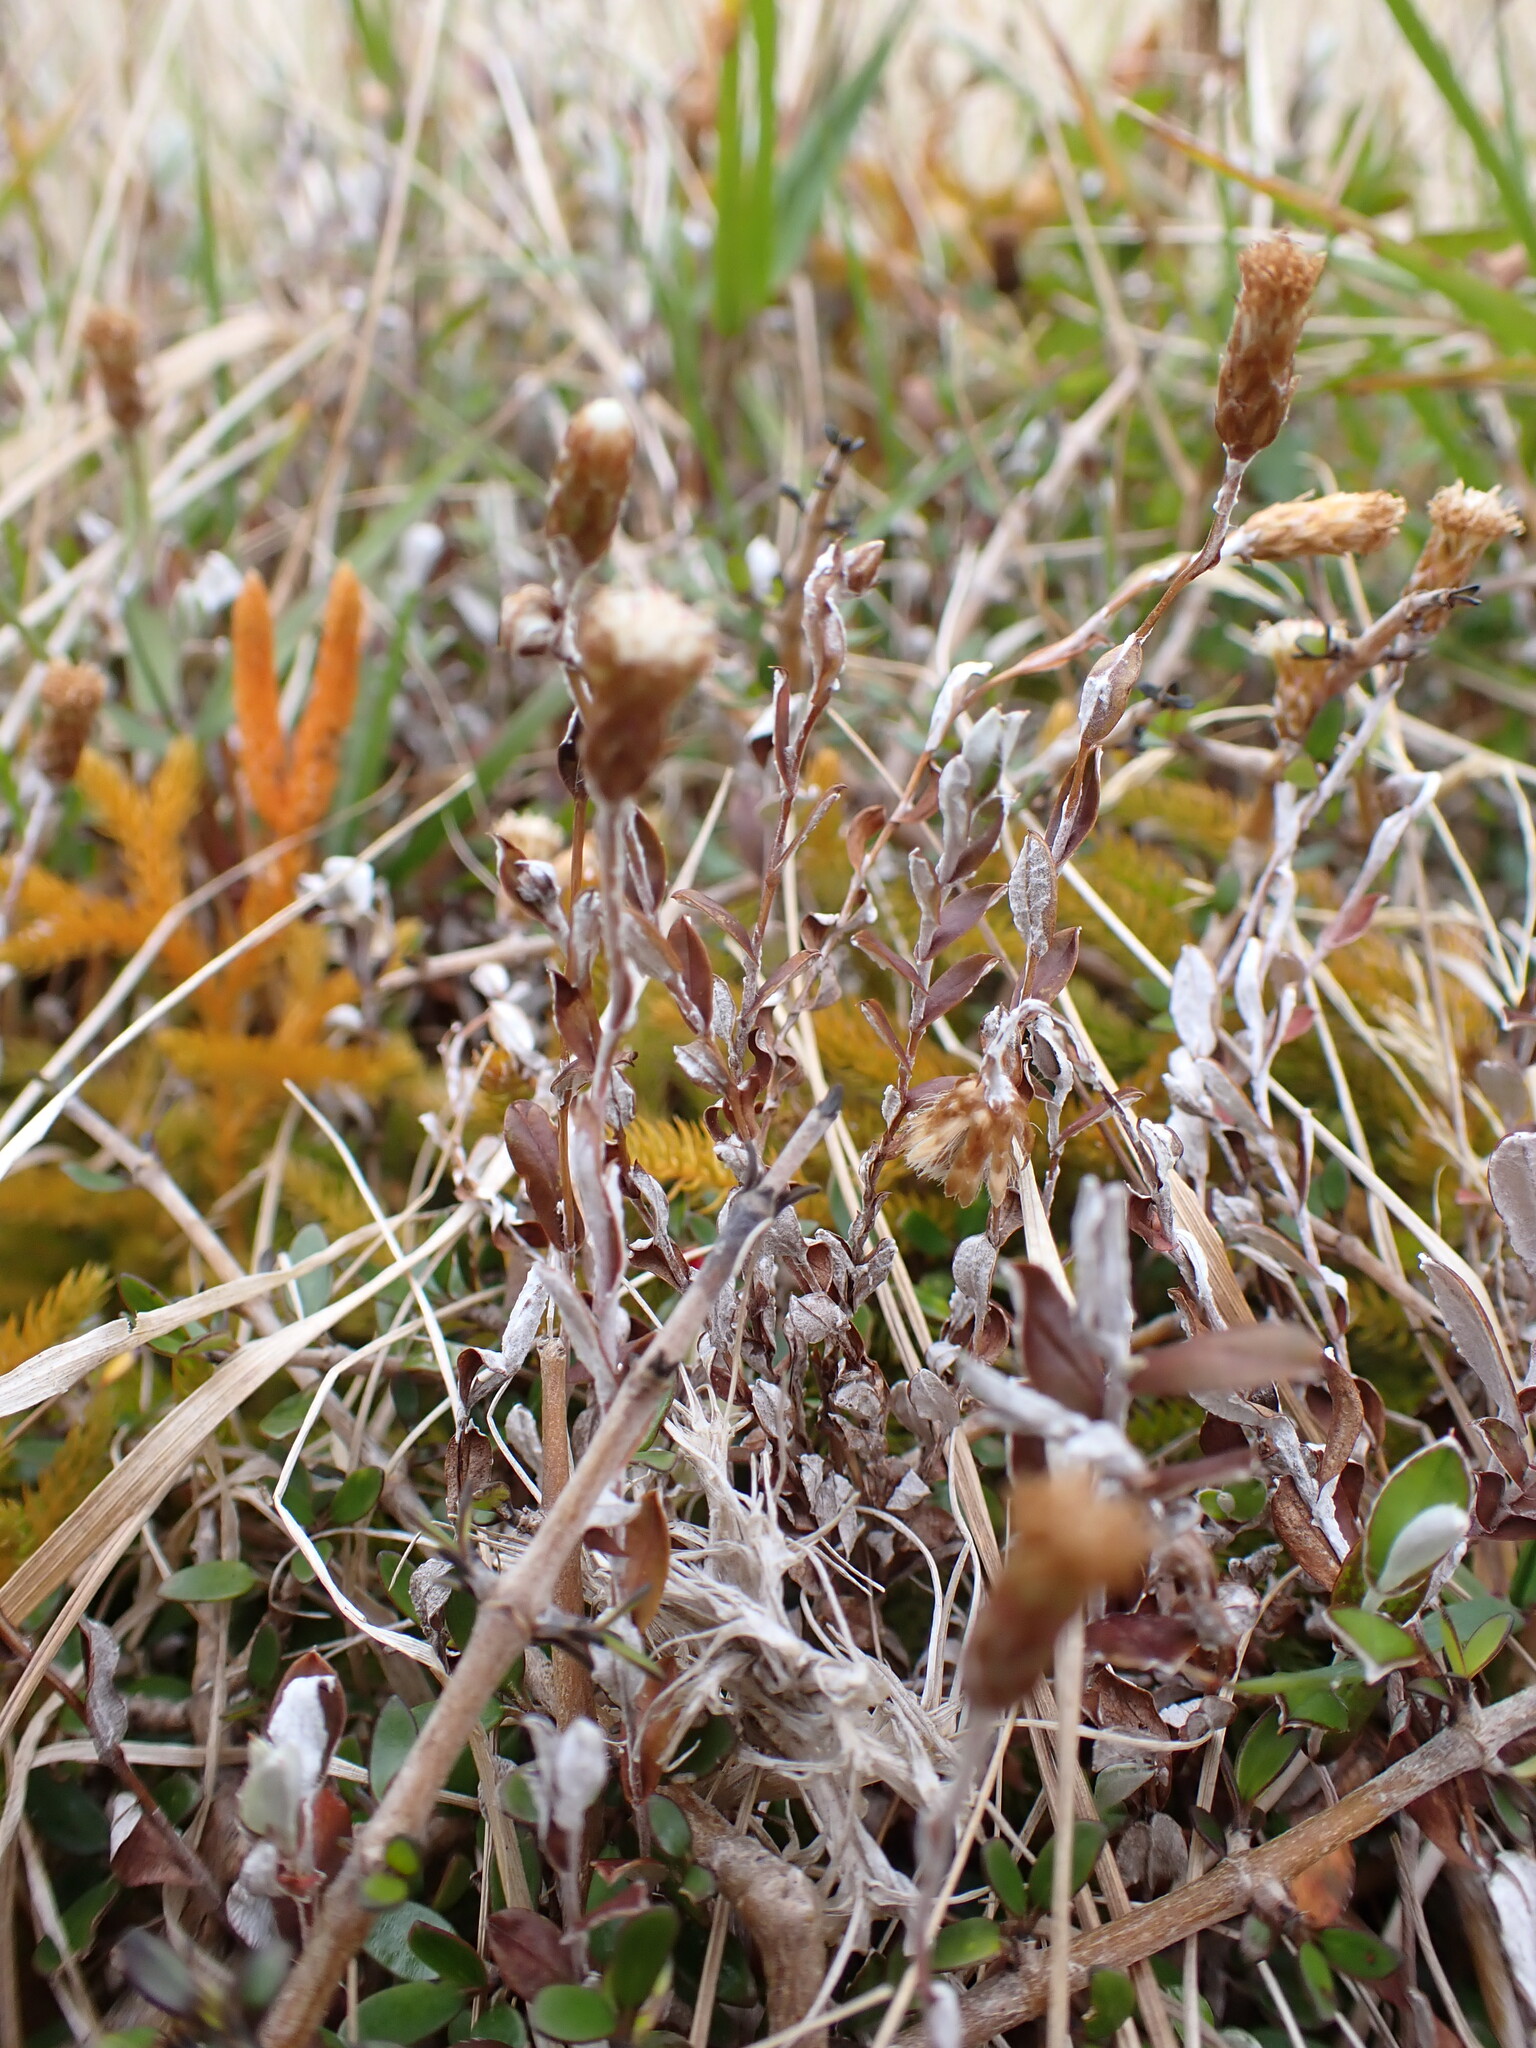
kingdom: Plantae
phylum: Tracheophyta
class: Magnoliopsida
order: Asterales
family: Asteraceae
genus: Helichrysum
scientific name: Helichrysum filicaule
